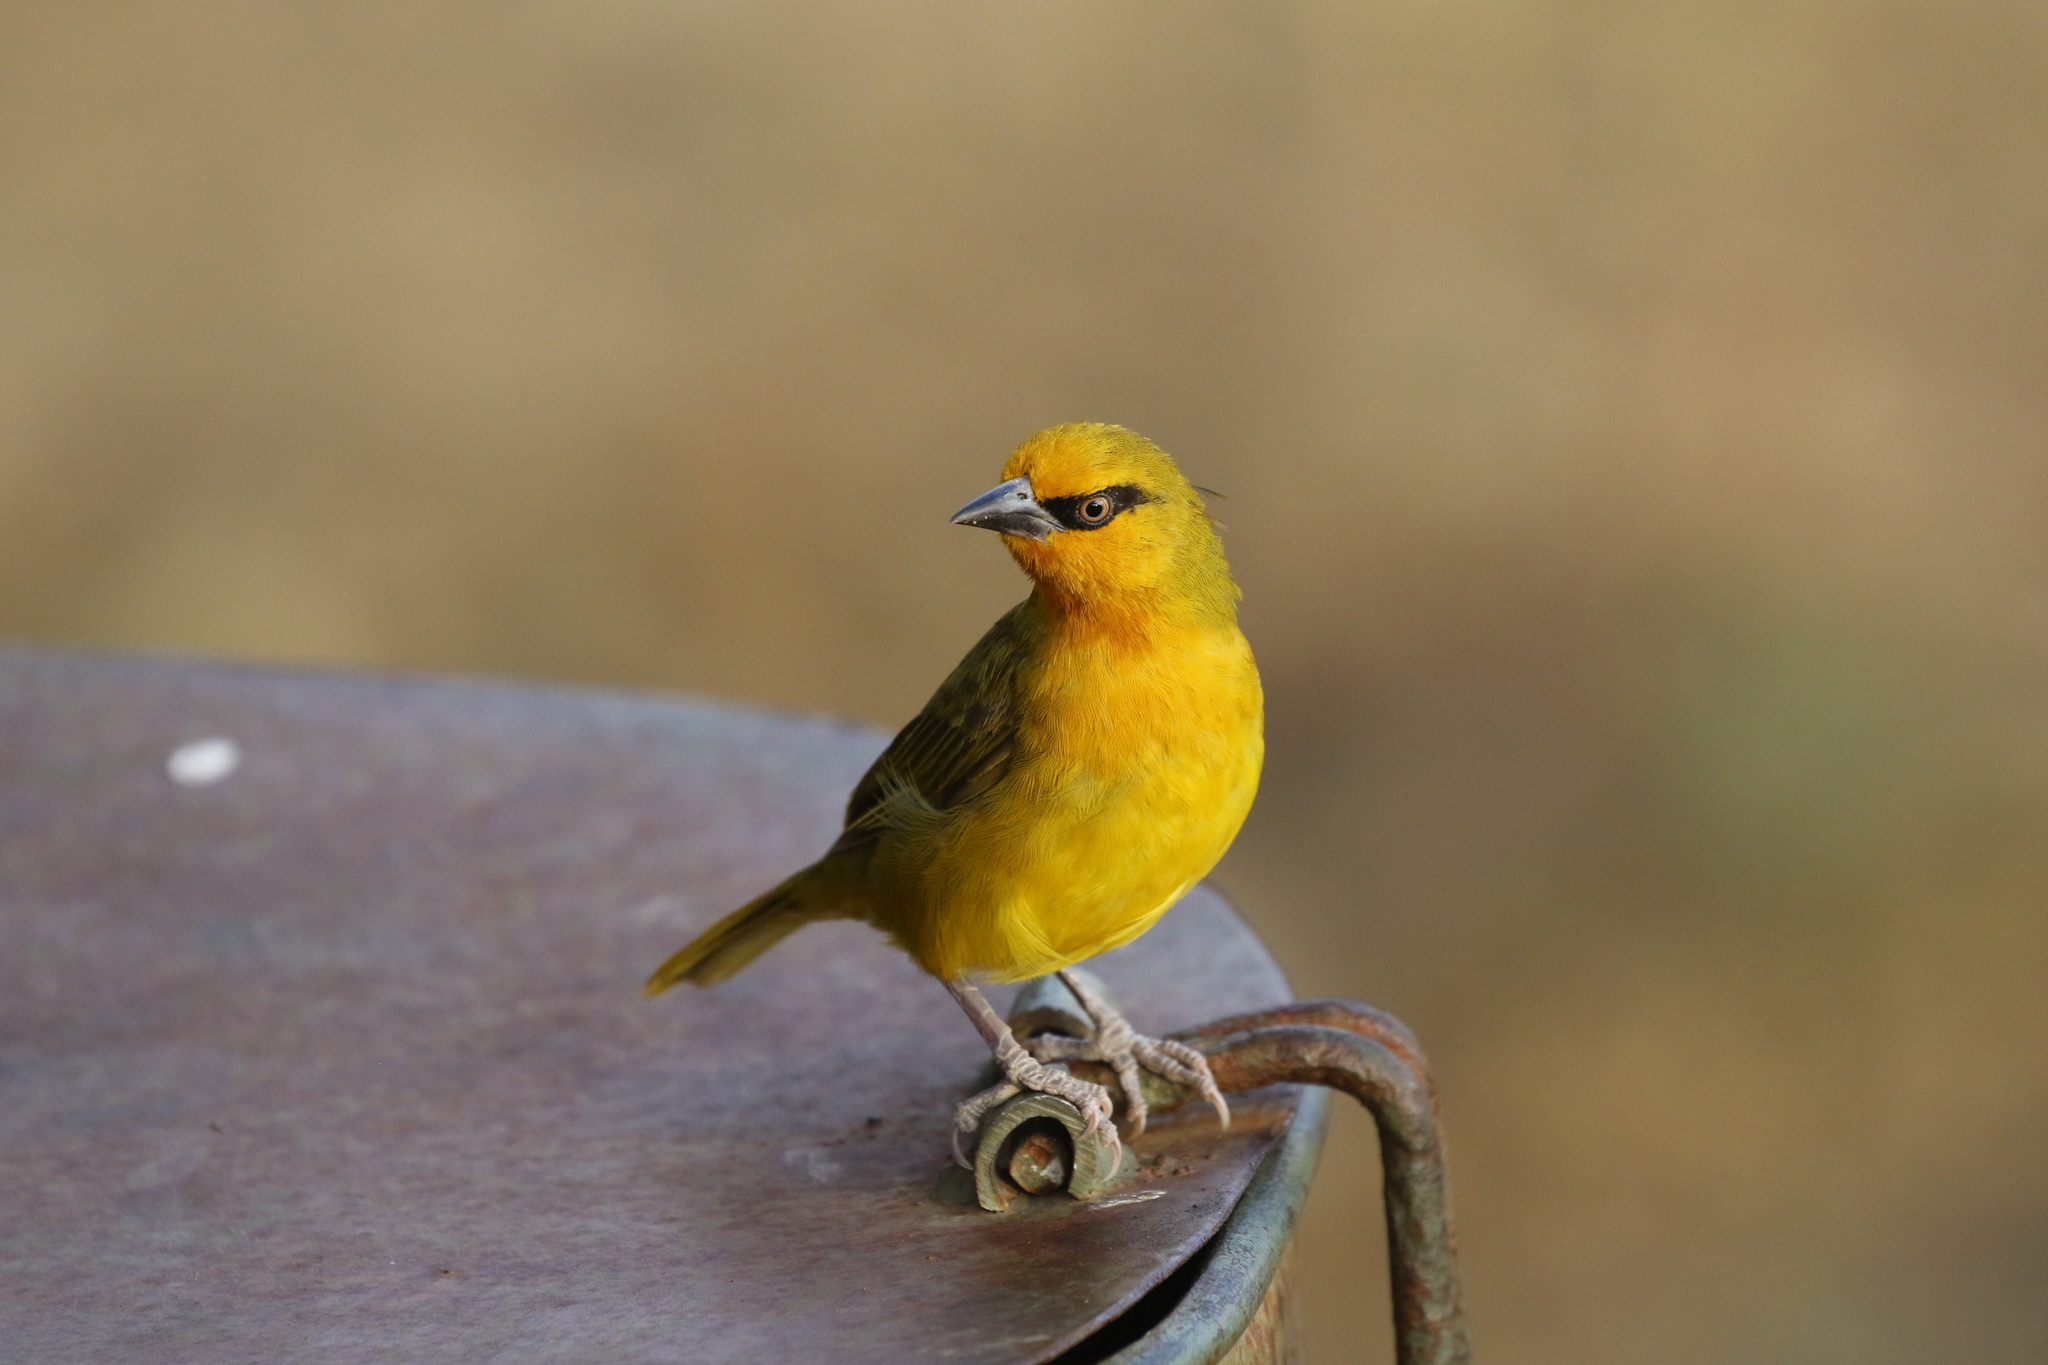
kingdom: Animalia
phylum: Chordata
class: Aves
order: Passeriformes
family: Ploceidae
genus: Ploceus
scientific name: Ploceus ocularis
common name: Spectacled weaver
